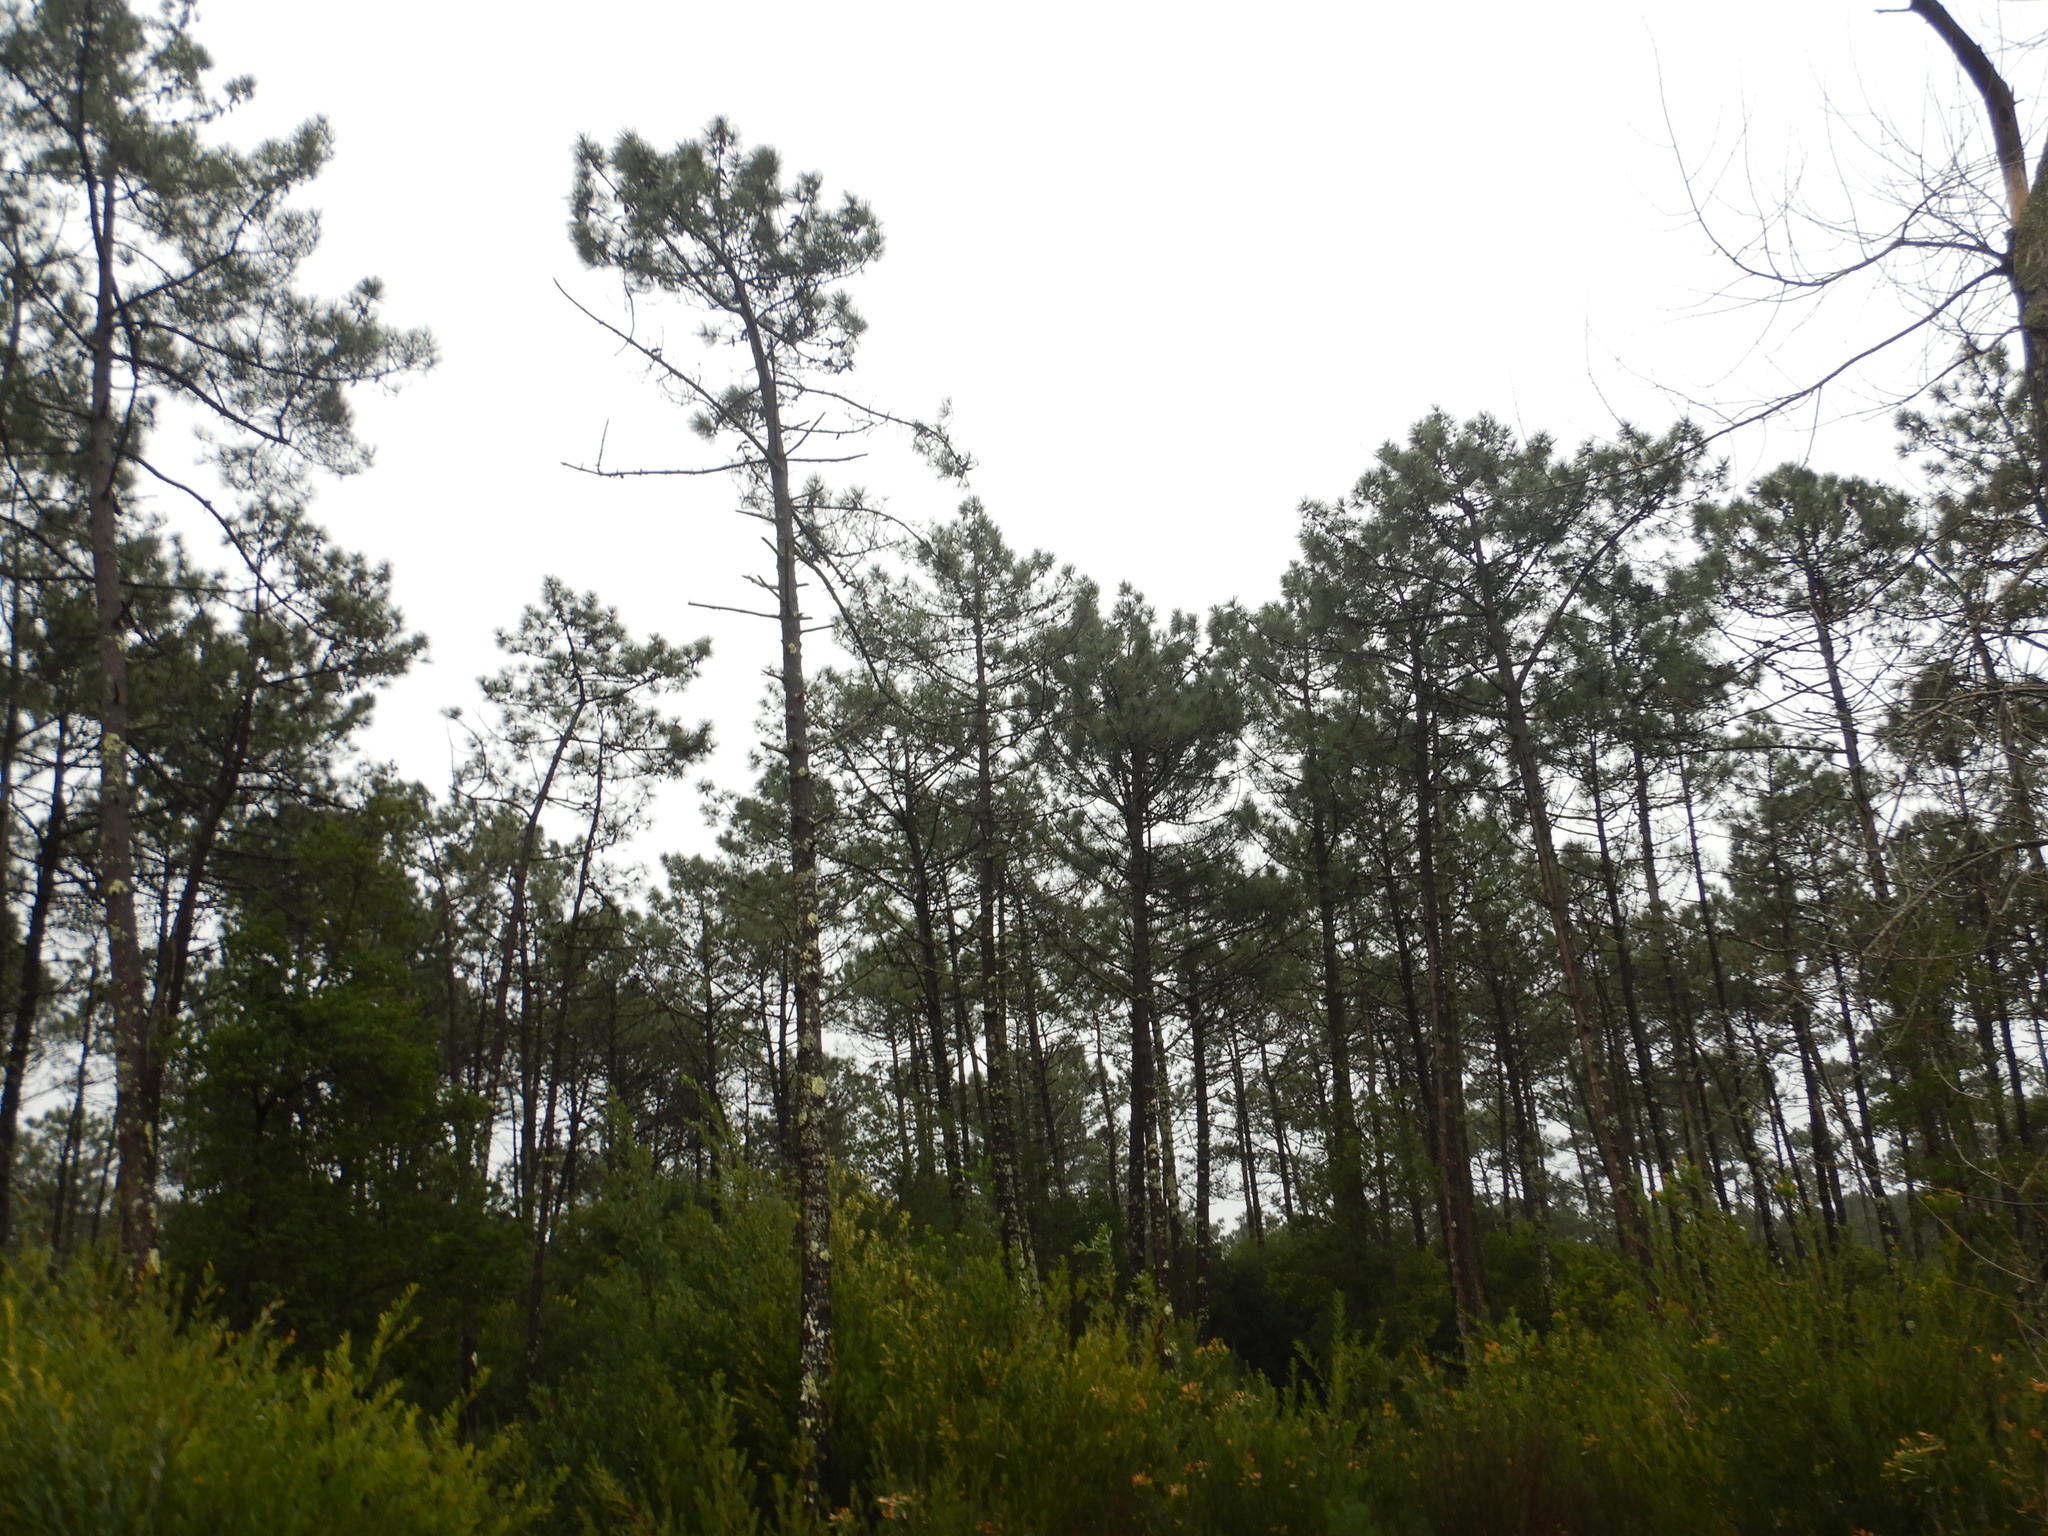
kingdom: Plantae
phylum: Tracheophyta
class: Pinopsida
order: Pinales
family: Pinaceae
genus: Pinus
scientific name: Pinus pinaster
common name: Maritime pine
